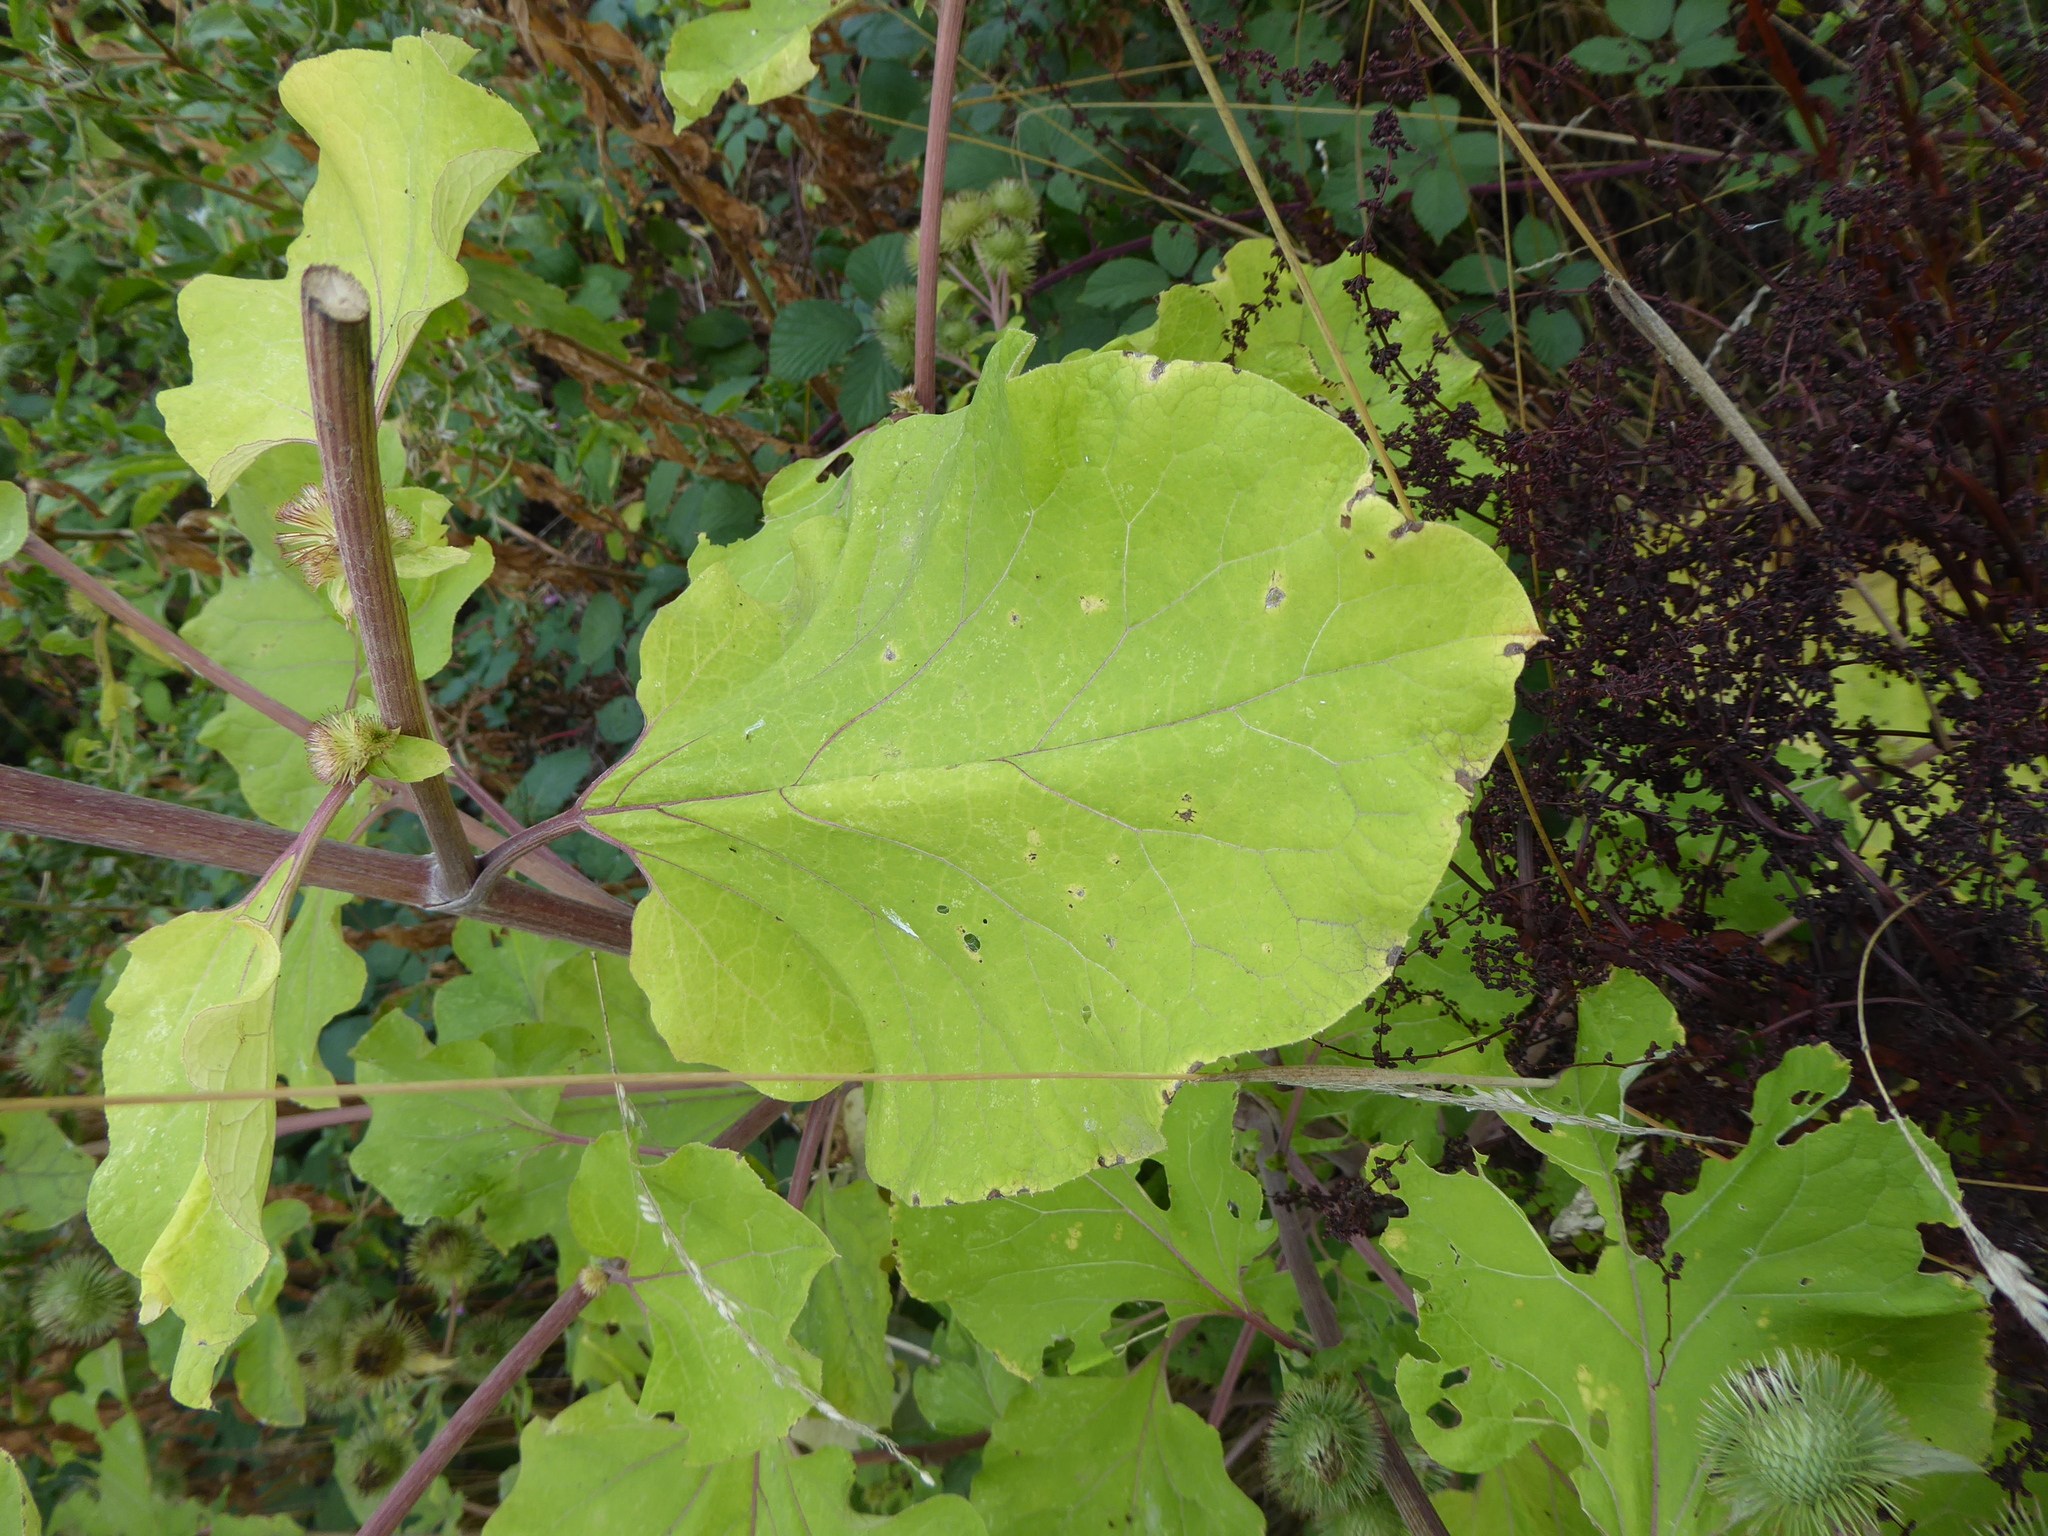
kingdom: Plantae
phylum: Tracheophyta
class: Magnoliopsida
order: Asterales
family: Asteraceae
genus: Arctium
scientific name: Arctium lappa
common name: Greater burdock
